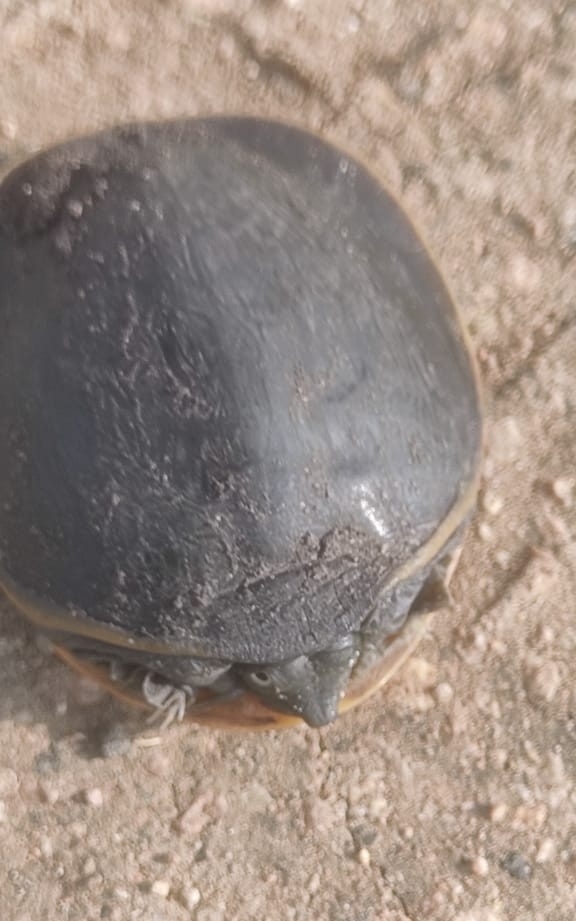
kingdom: Animalia
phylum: Chordata
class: Testudines
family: Trionychidae
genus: Lissemys
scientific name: Lissemys punctata
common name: Indian flap-shelled turtle
